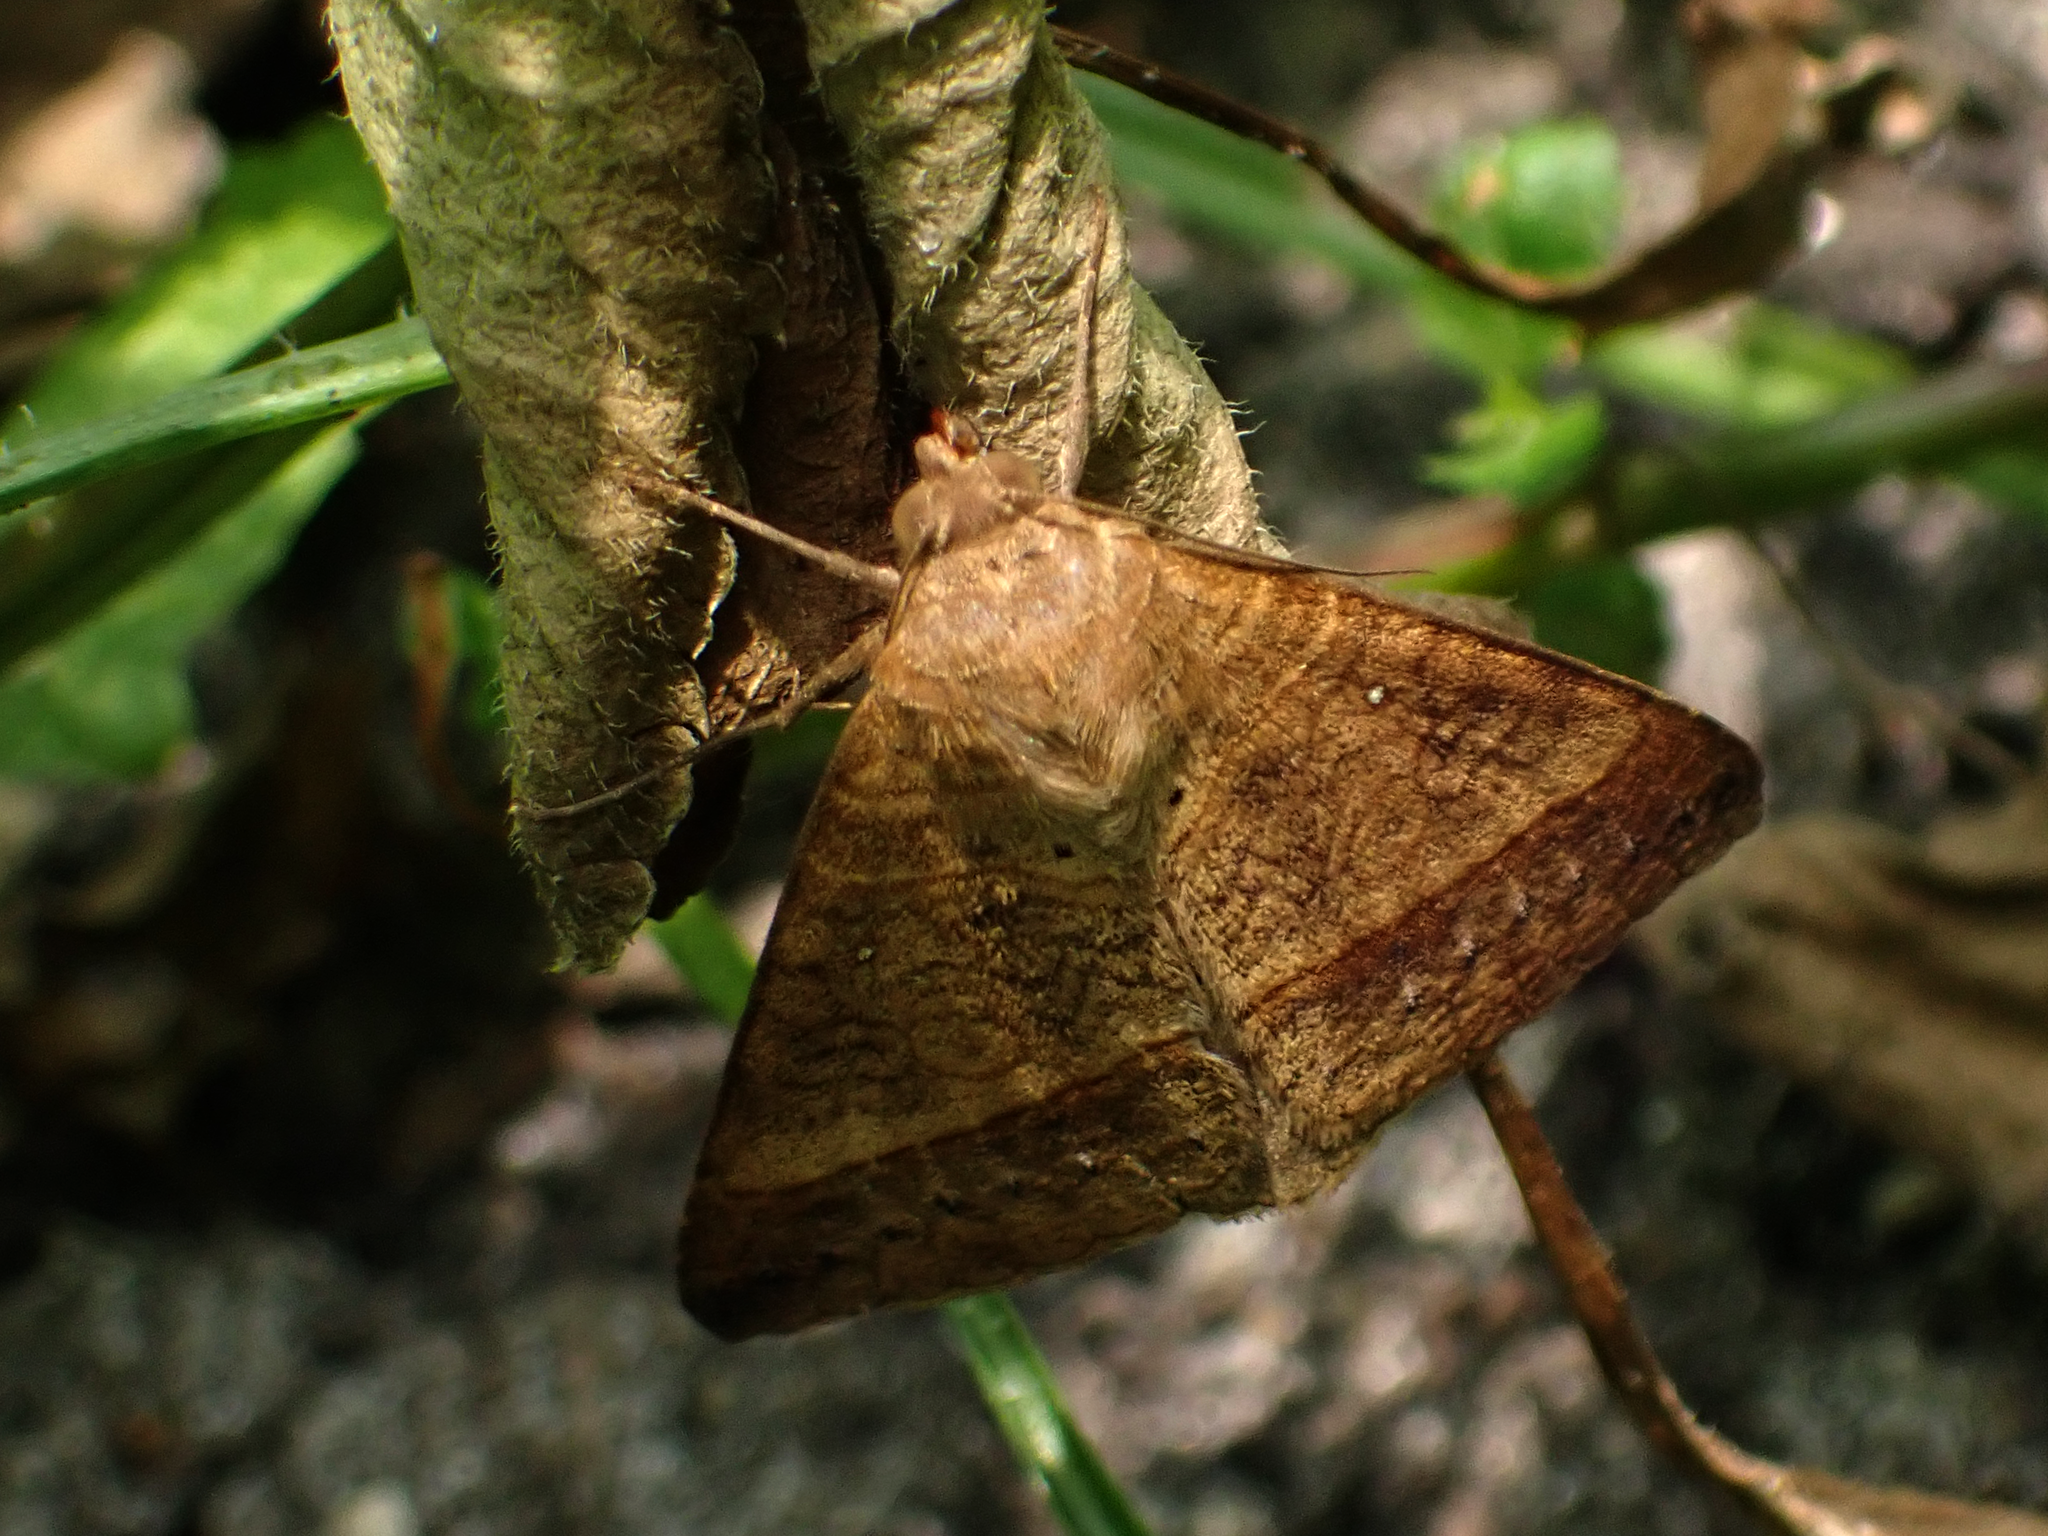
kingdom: Animalia
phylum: Arthropoda
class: Insecta
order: Lepidoptera
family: Erebidae
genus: Mocis
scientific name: Mocis latipes
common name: Striped grass looper
